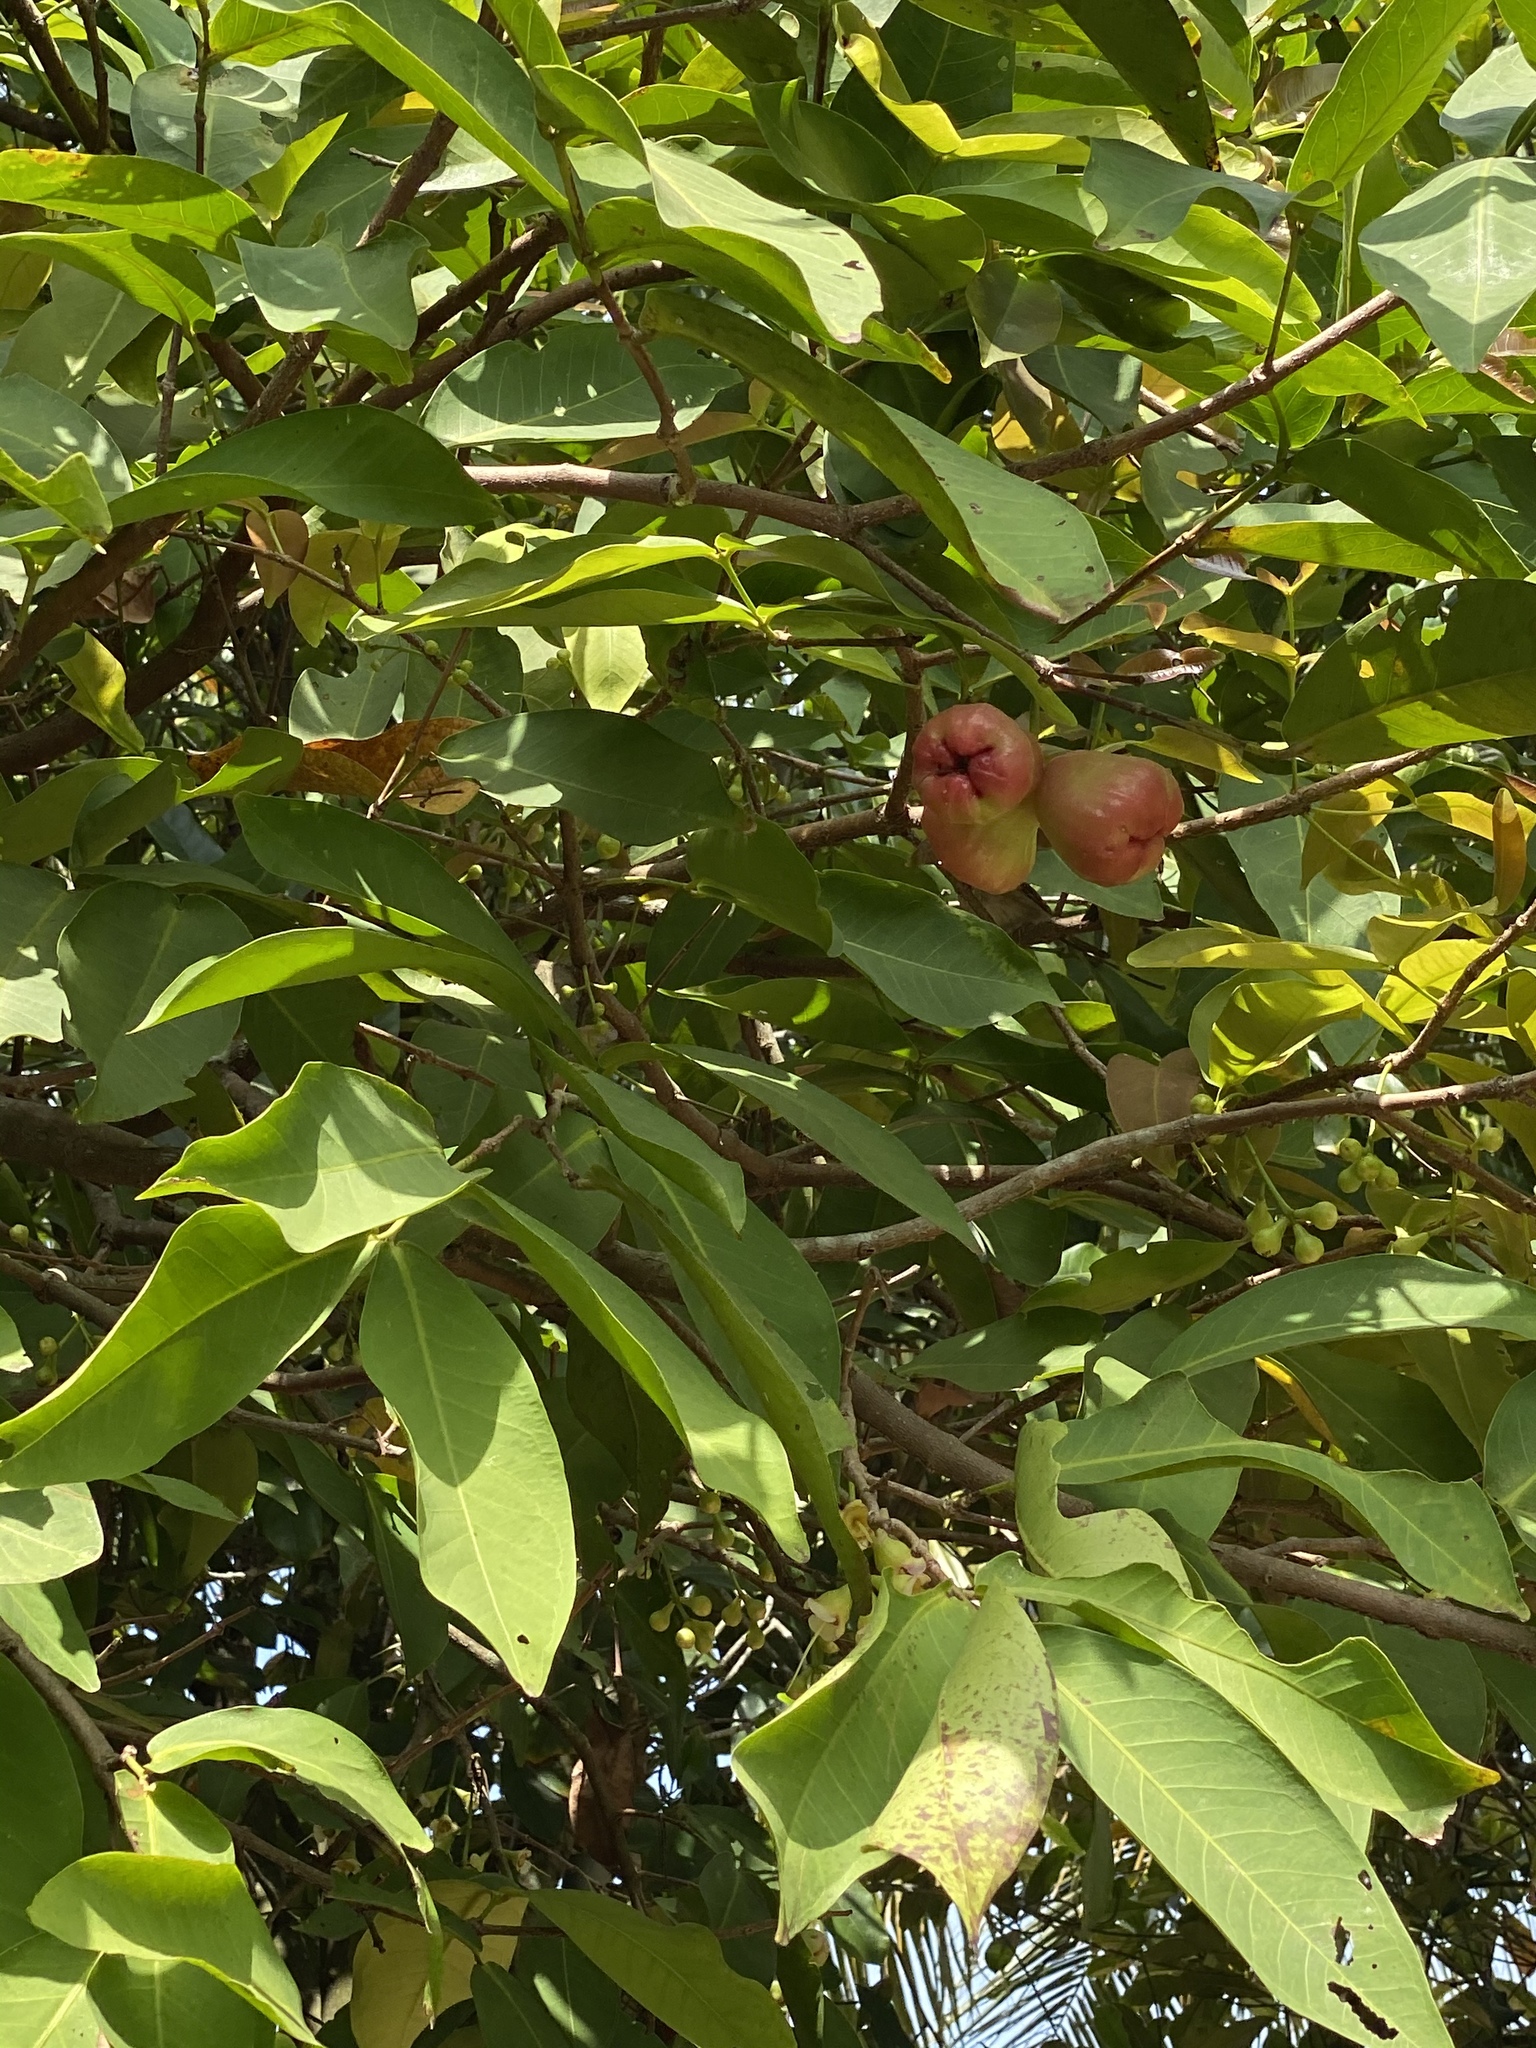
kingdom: Plantae
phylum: Tracheophyta
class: Magnoliopsida
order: Myrtales
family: Myrtaceae
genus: Syzygium
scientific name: Syzygium samarangense
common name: Semarang rose-apple
